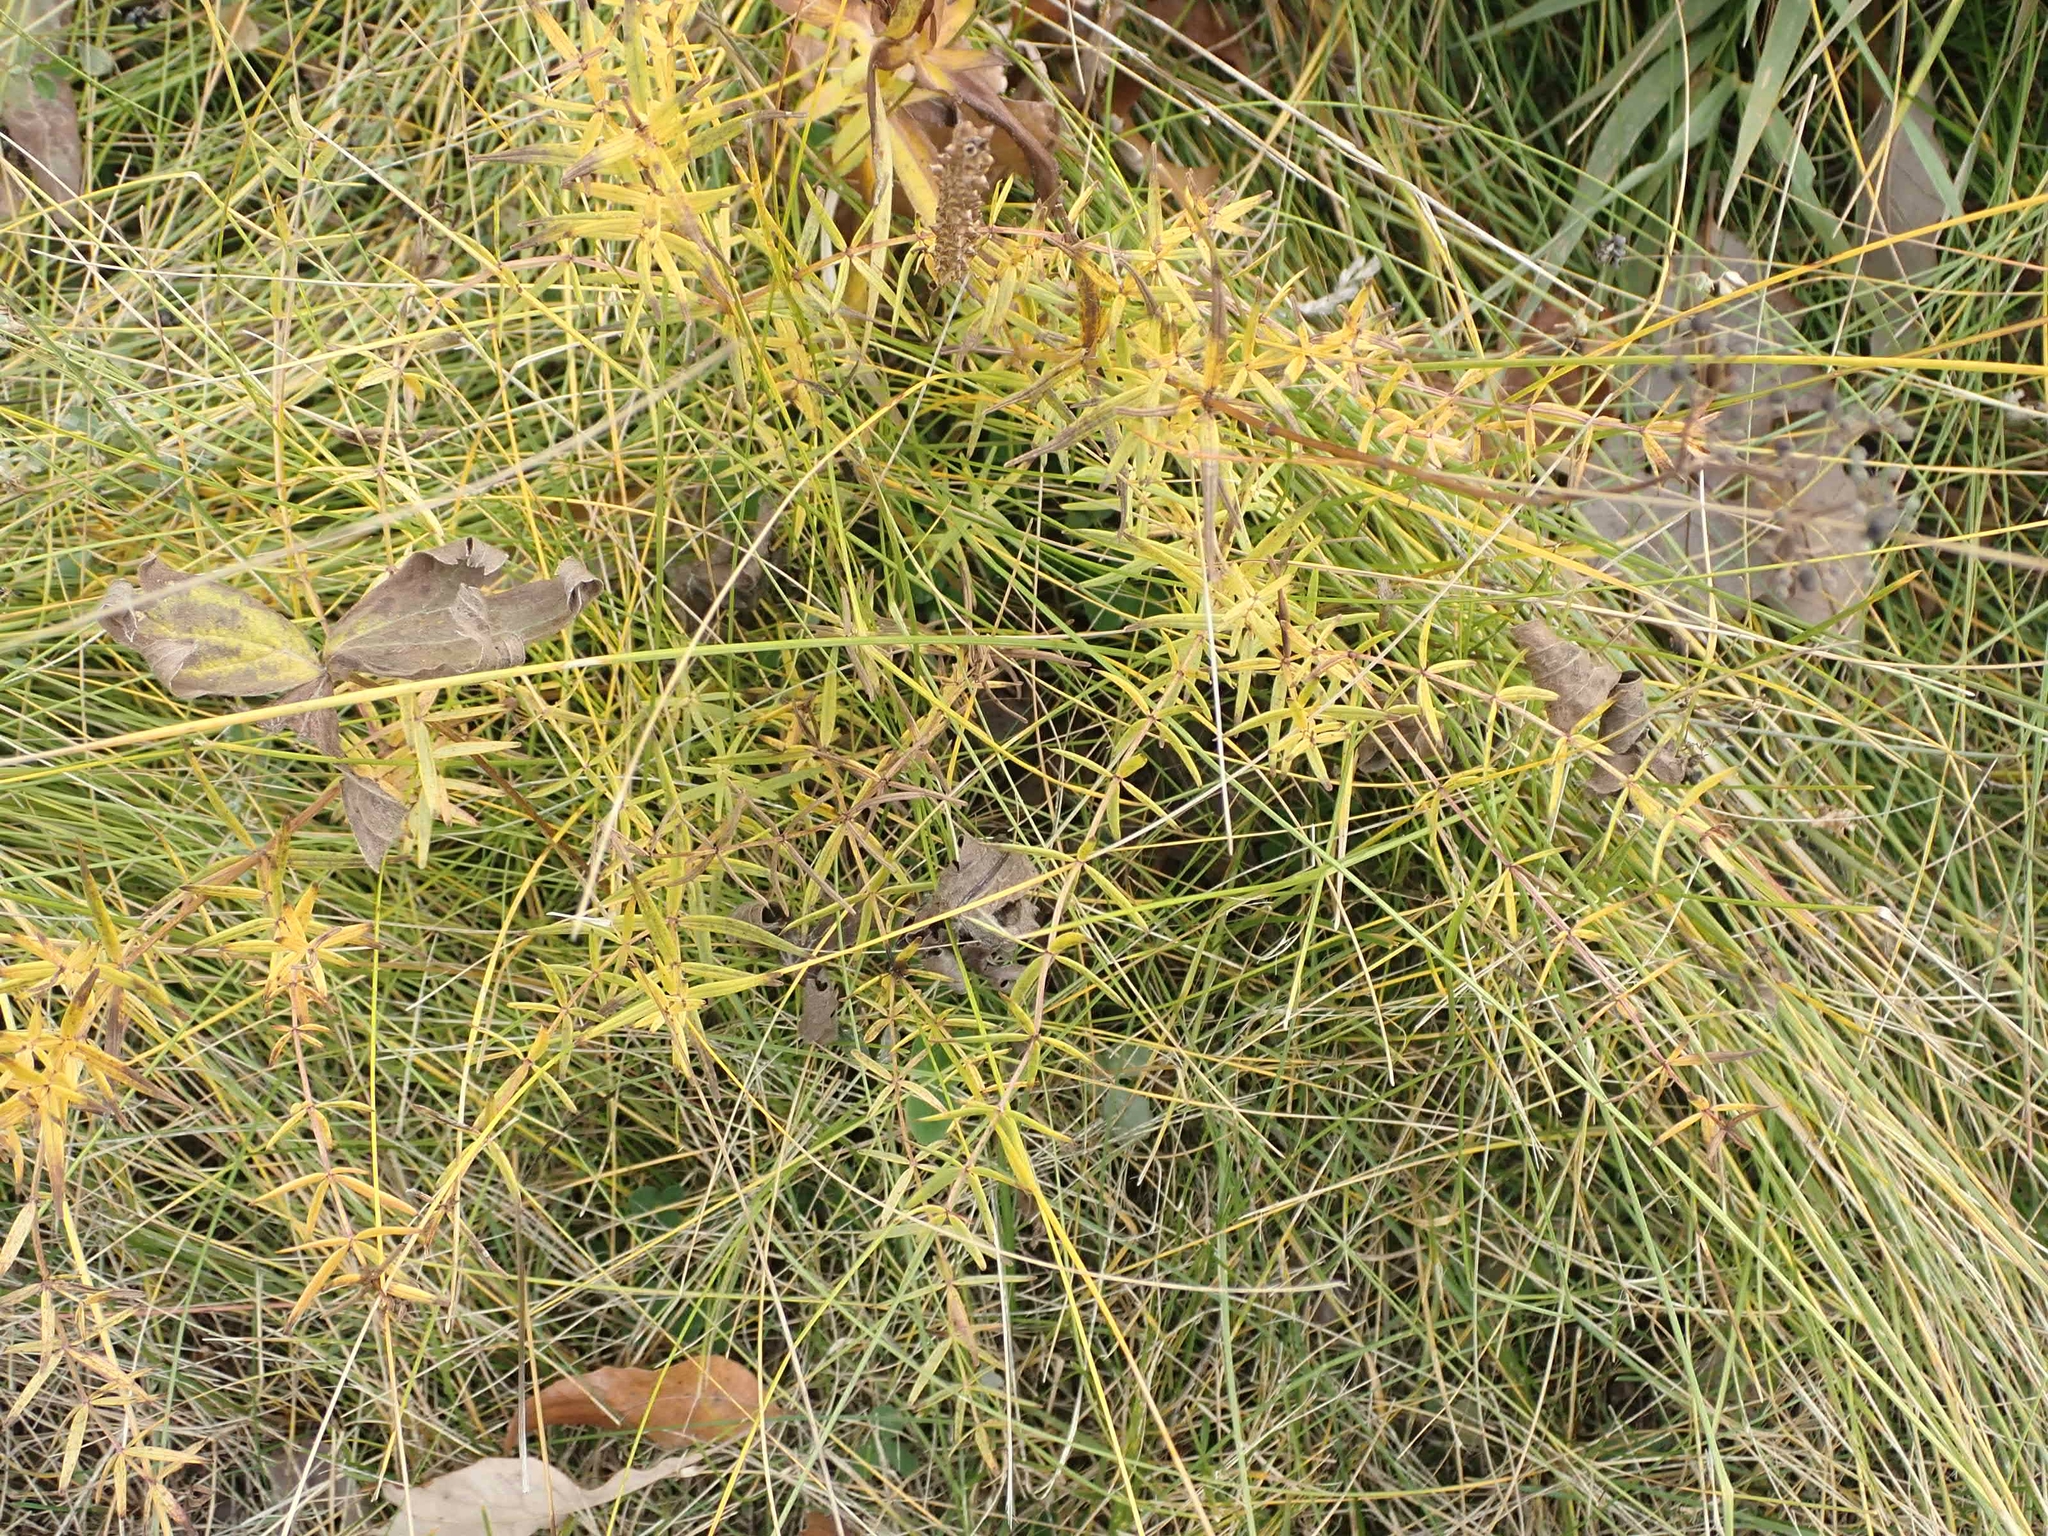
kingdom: Plantae
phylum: Tracheophyta
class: Magnoliopsida
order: Gentianales
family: Rubiaceae
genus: Galium
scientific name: Galium boreale
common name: Northern bedstraw
